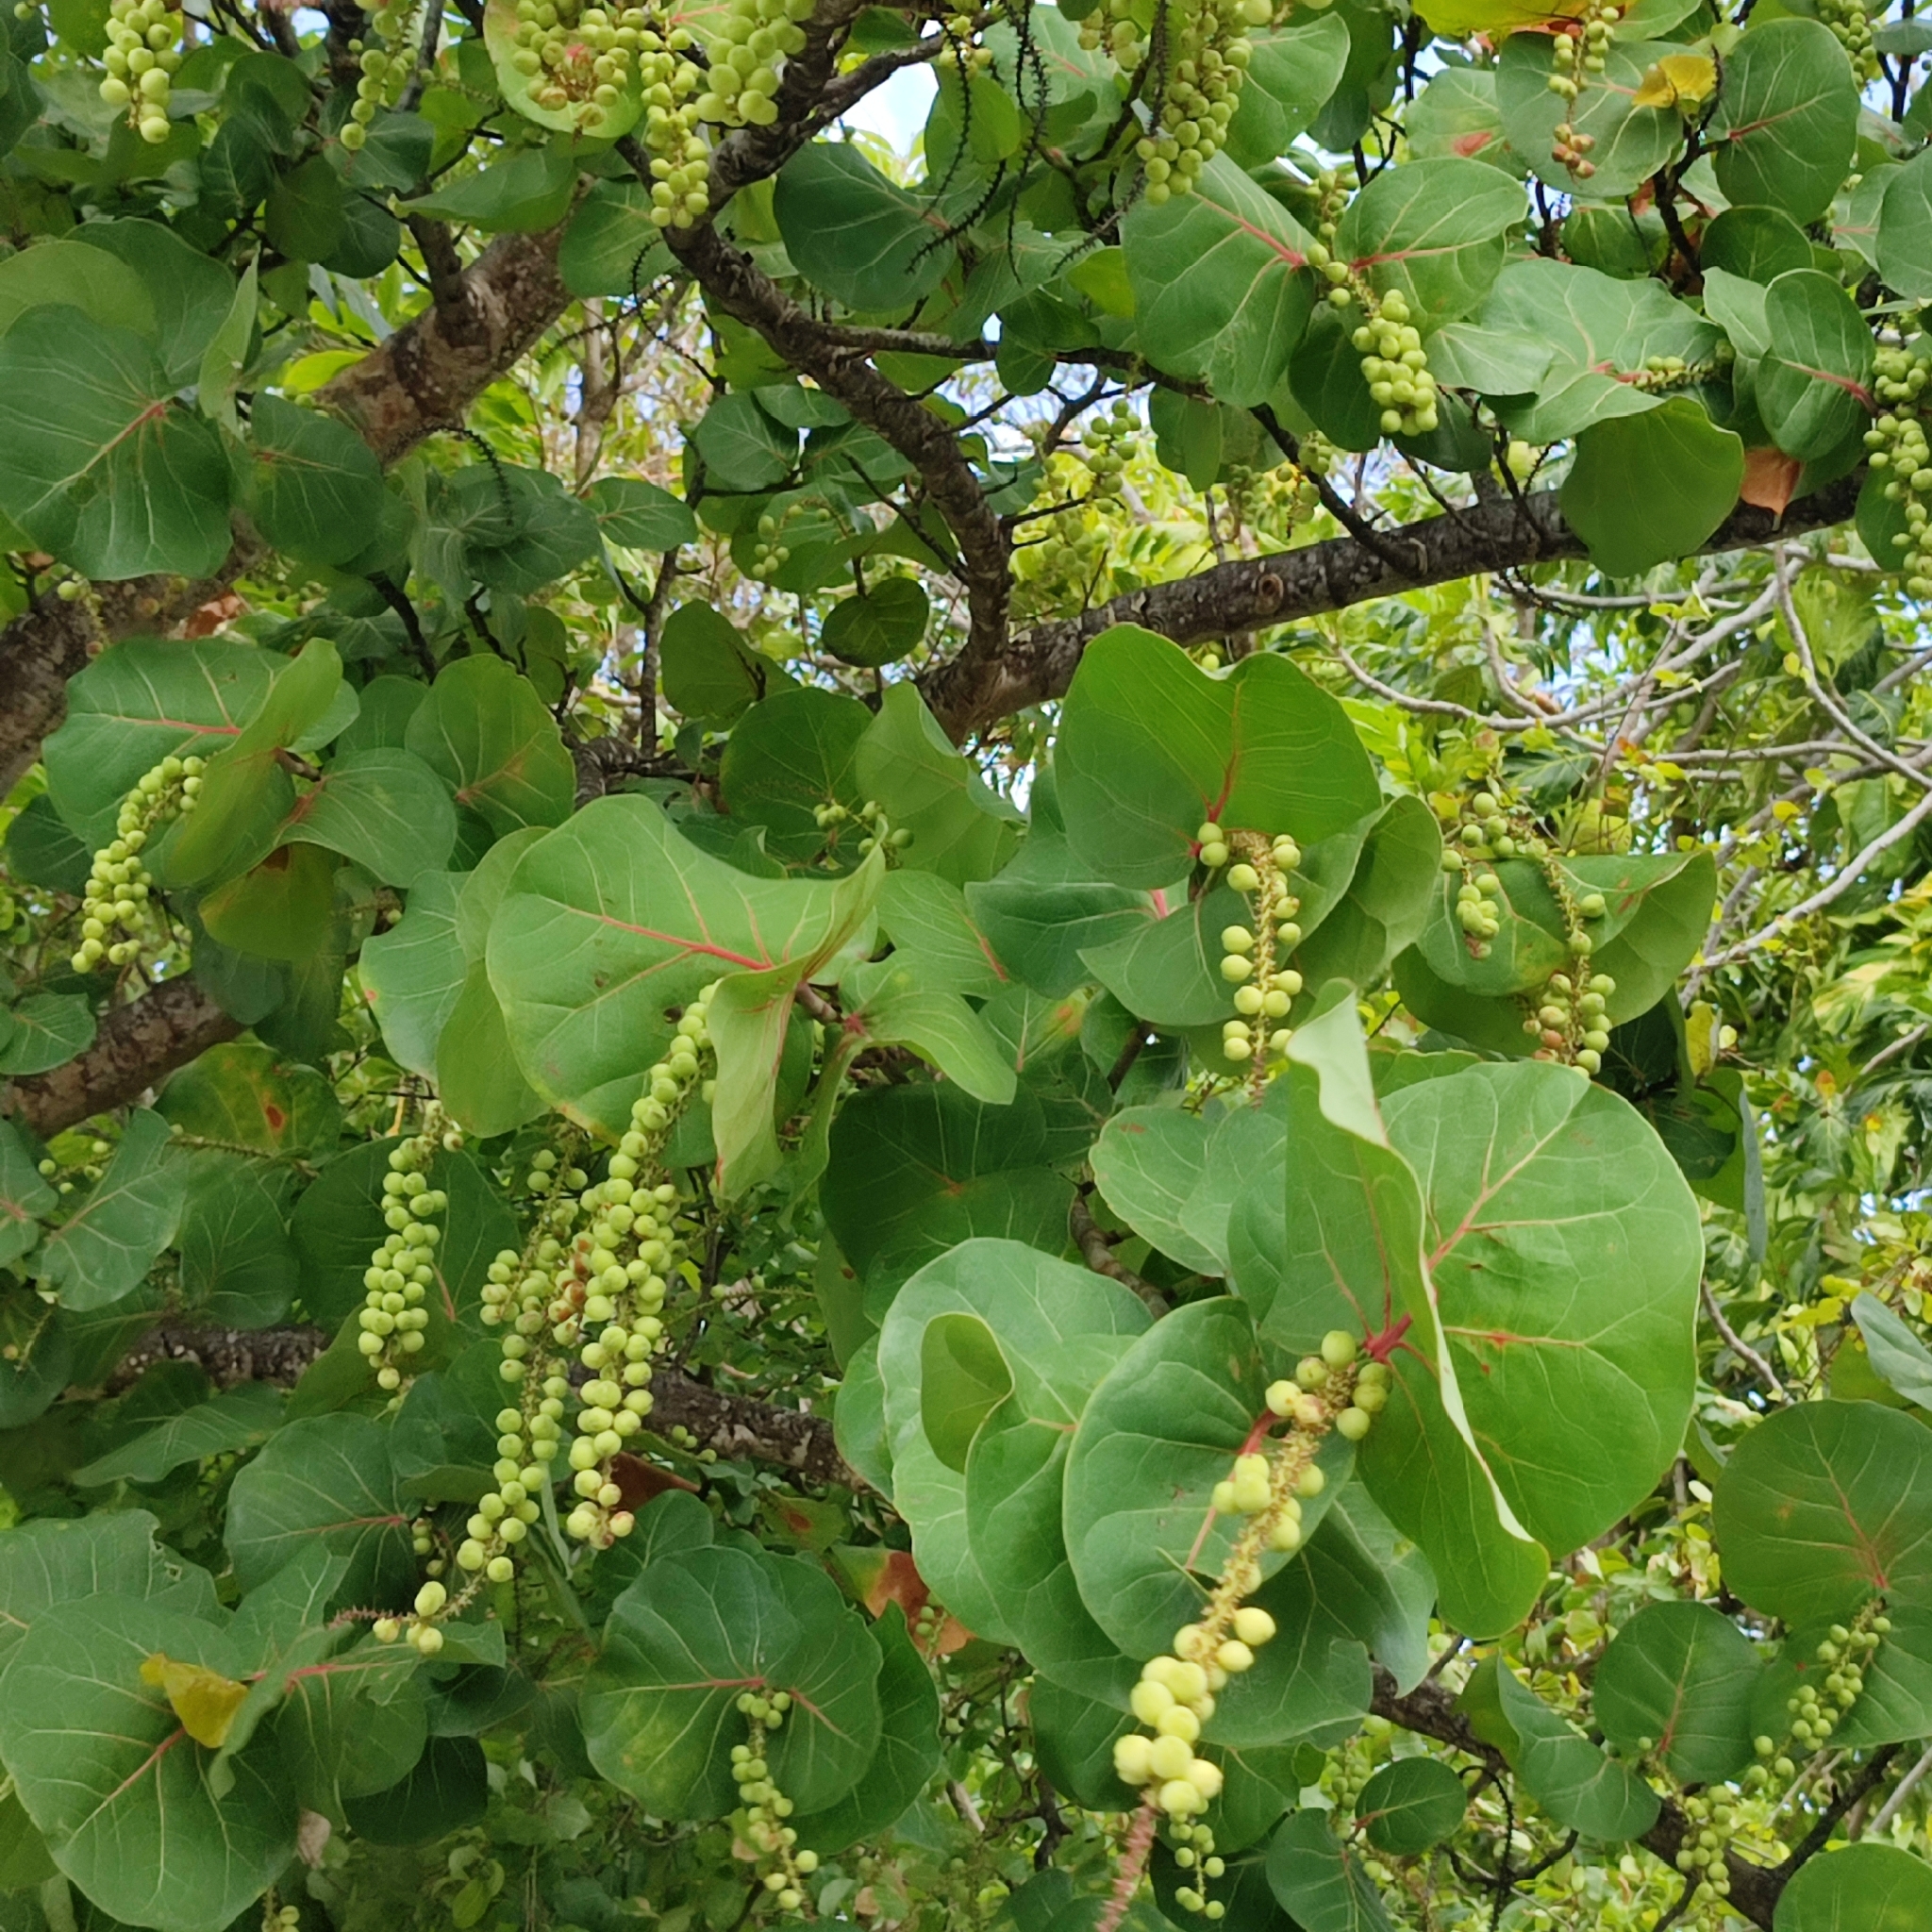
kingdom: Plantae
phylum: Tracheophyta
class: Magnoliopsida
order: Caryophyllales
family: Polygonaceae
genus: Coccoloba
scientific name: Coccoloba uvifera
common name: Seagrape
